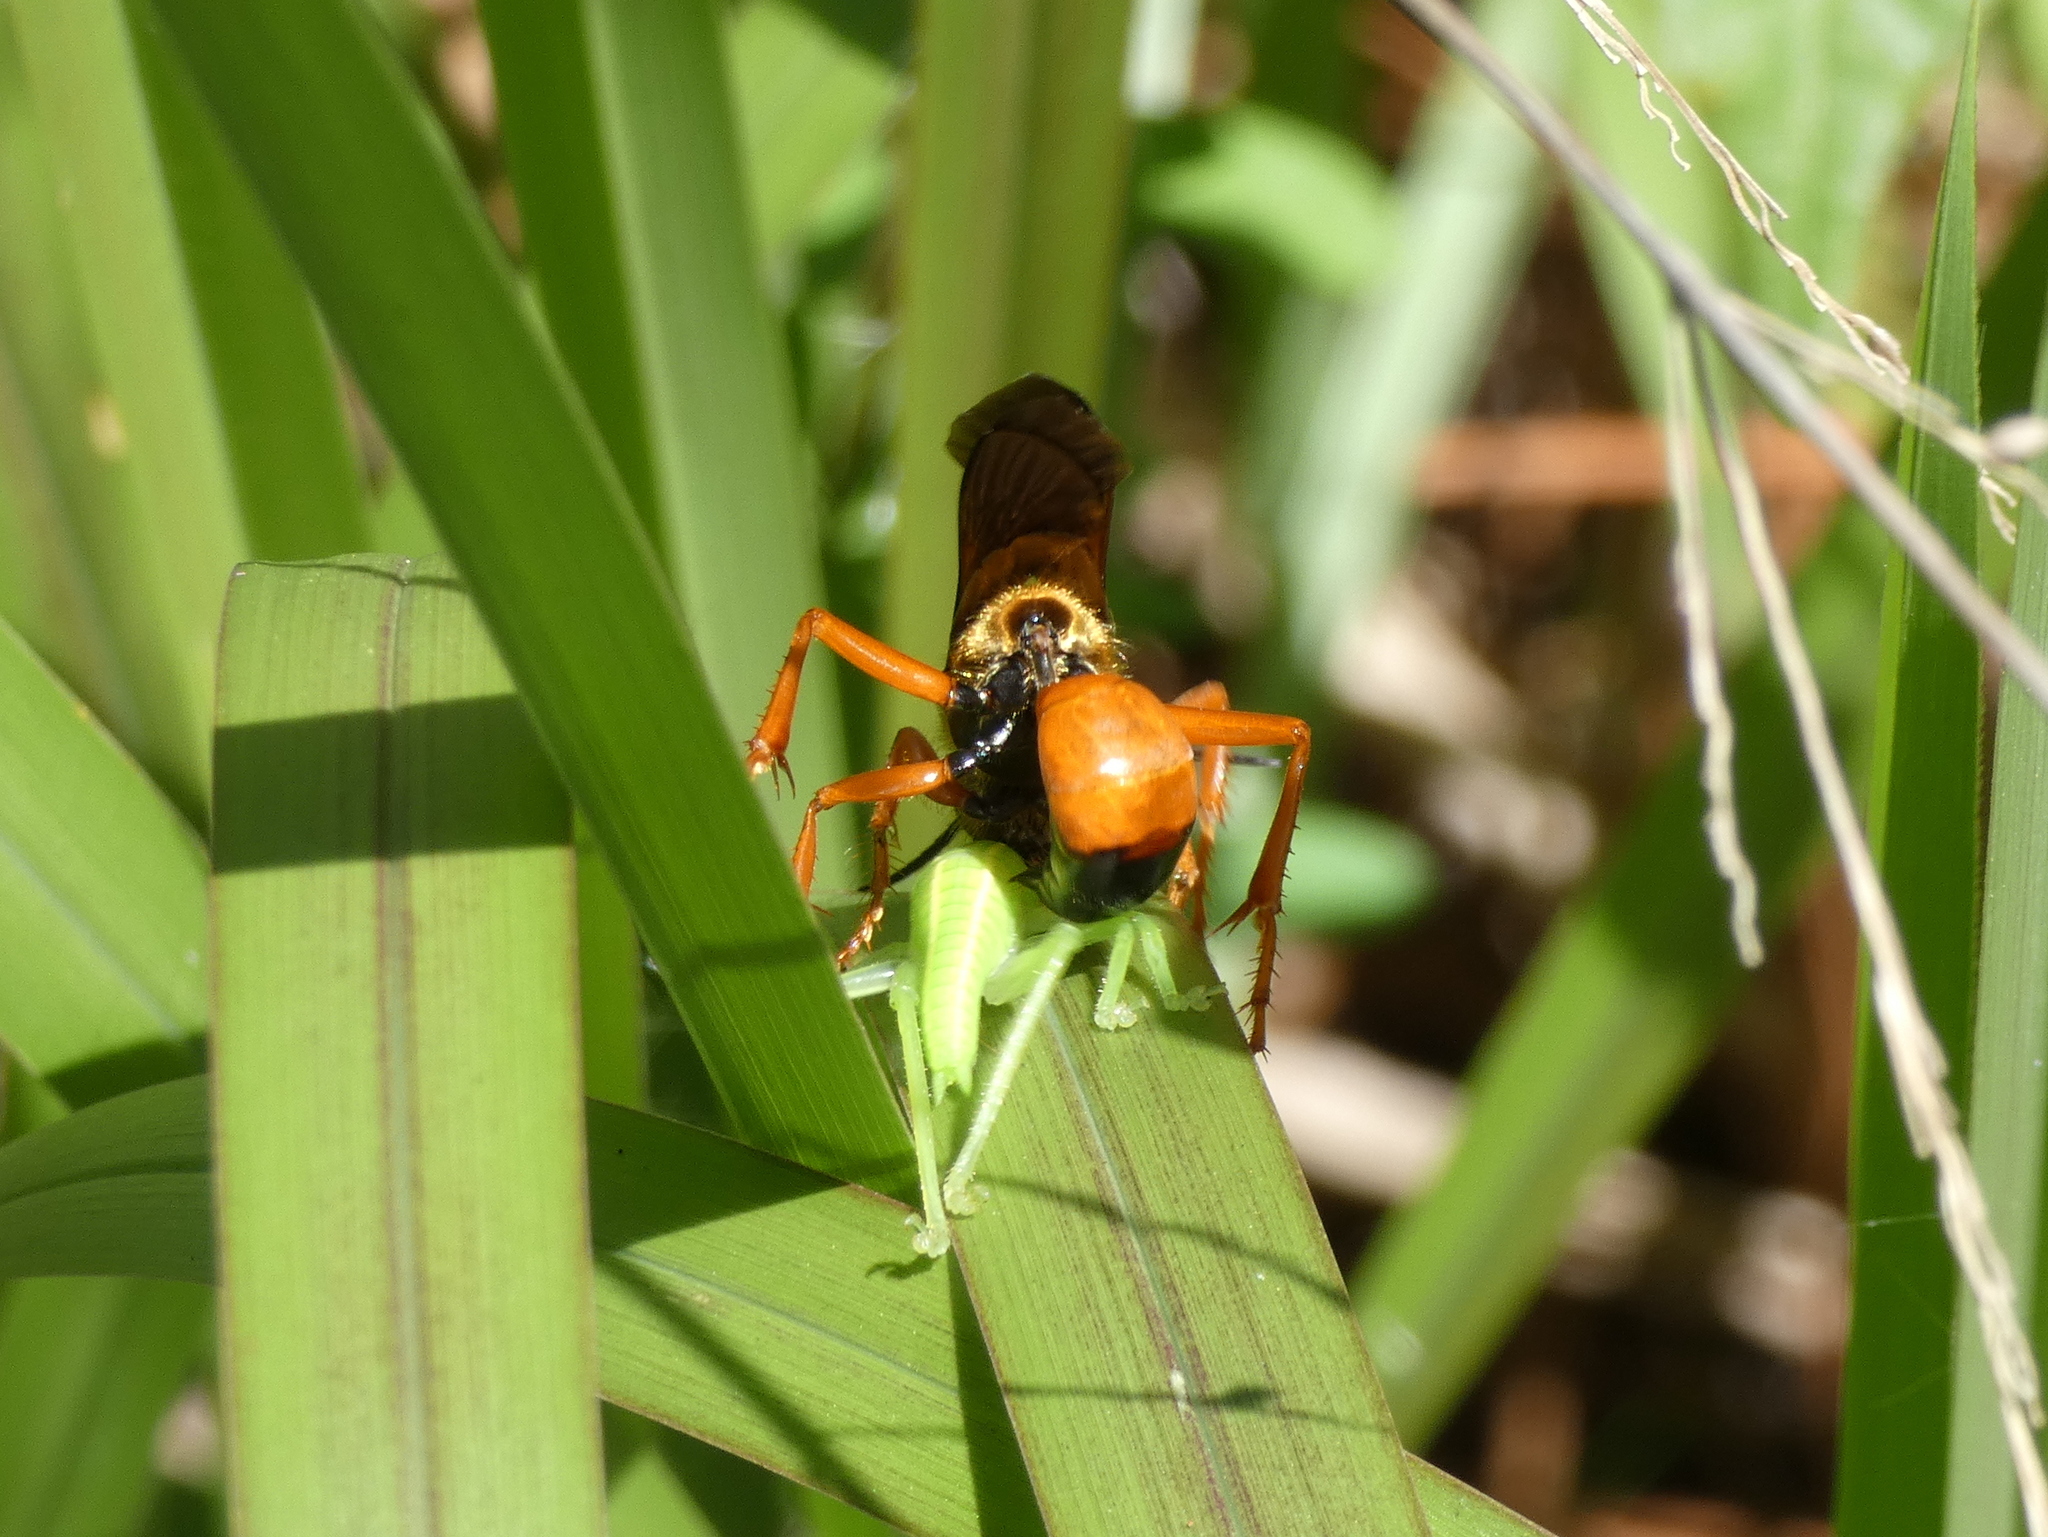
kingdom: Animalia
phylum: Arthropoda
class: Insecta
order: Hymenoptera
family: Sphecidae
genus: Sphex
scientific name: Sphex ichneumoneus
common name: Great golden digger wasp
